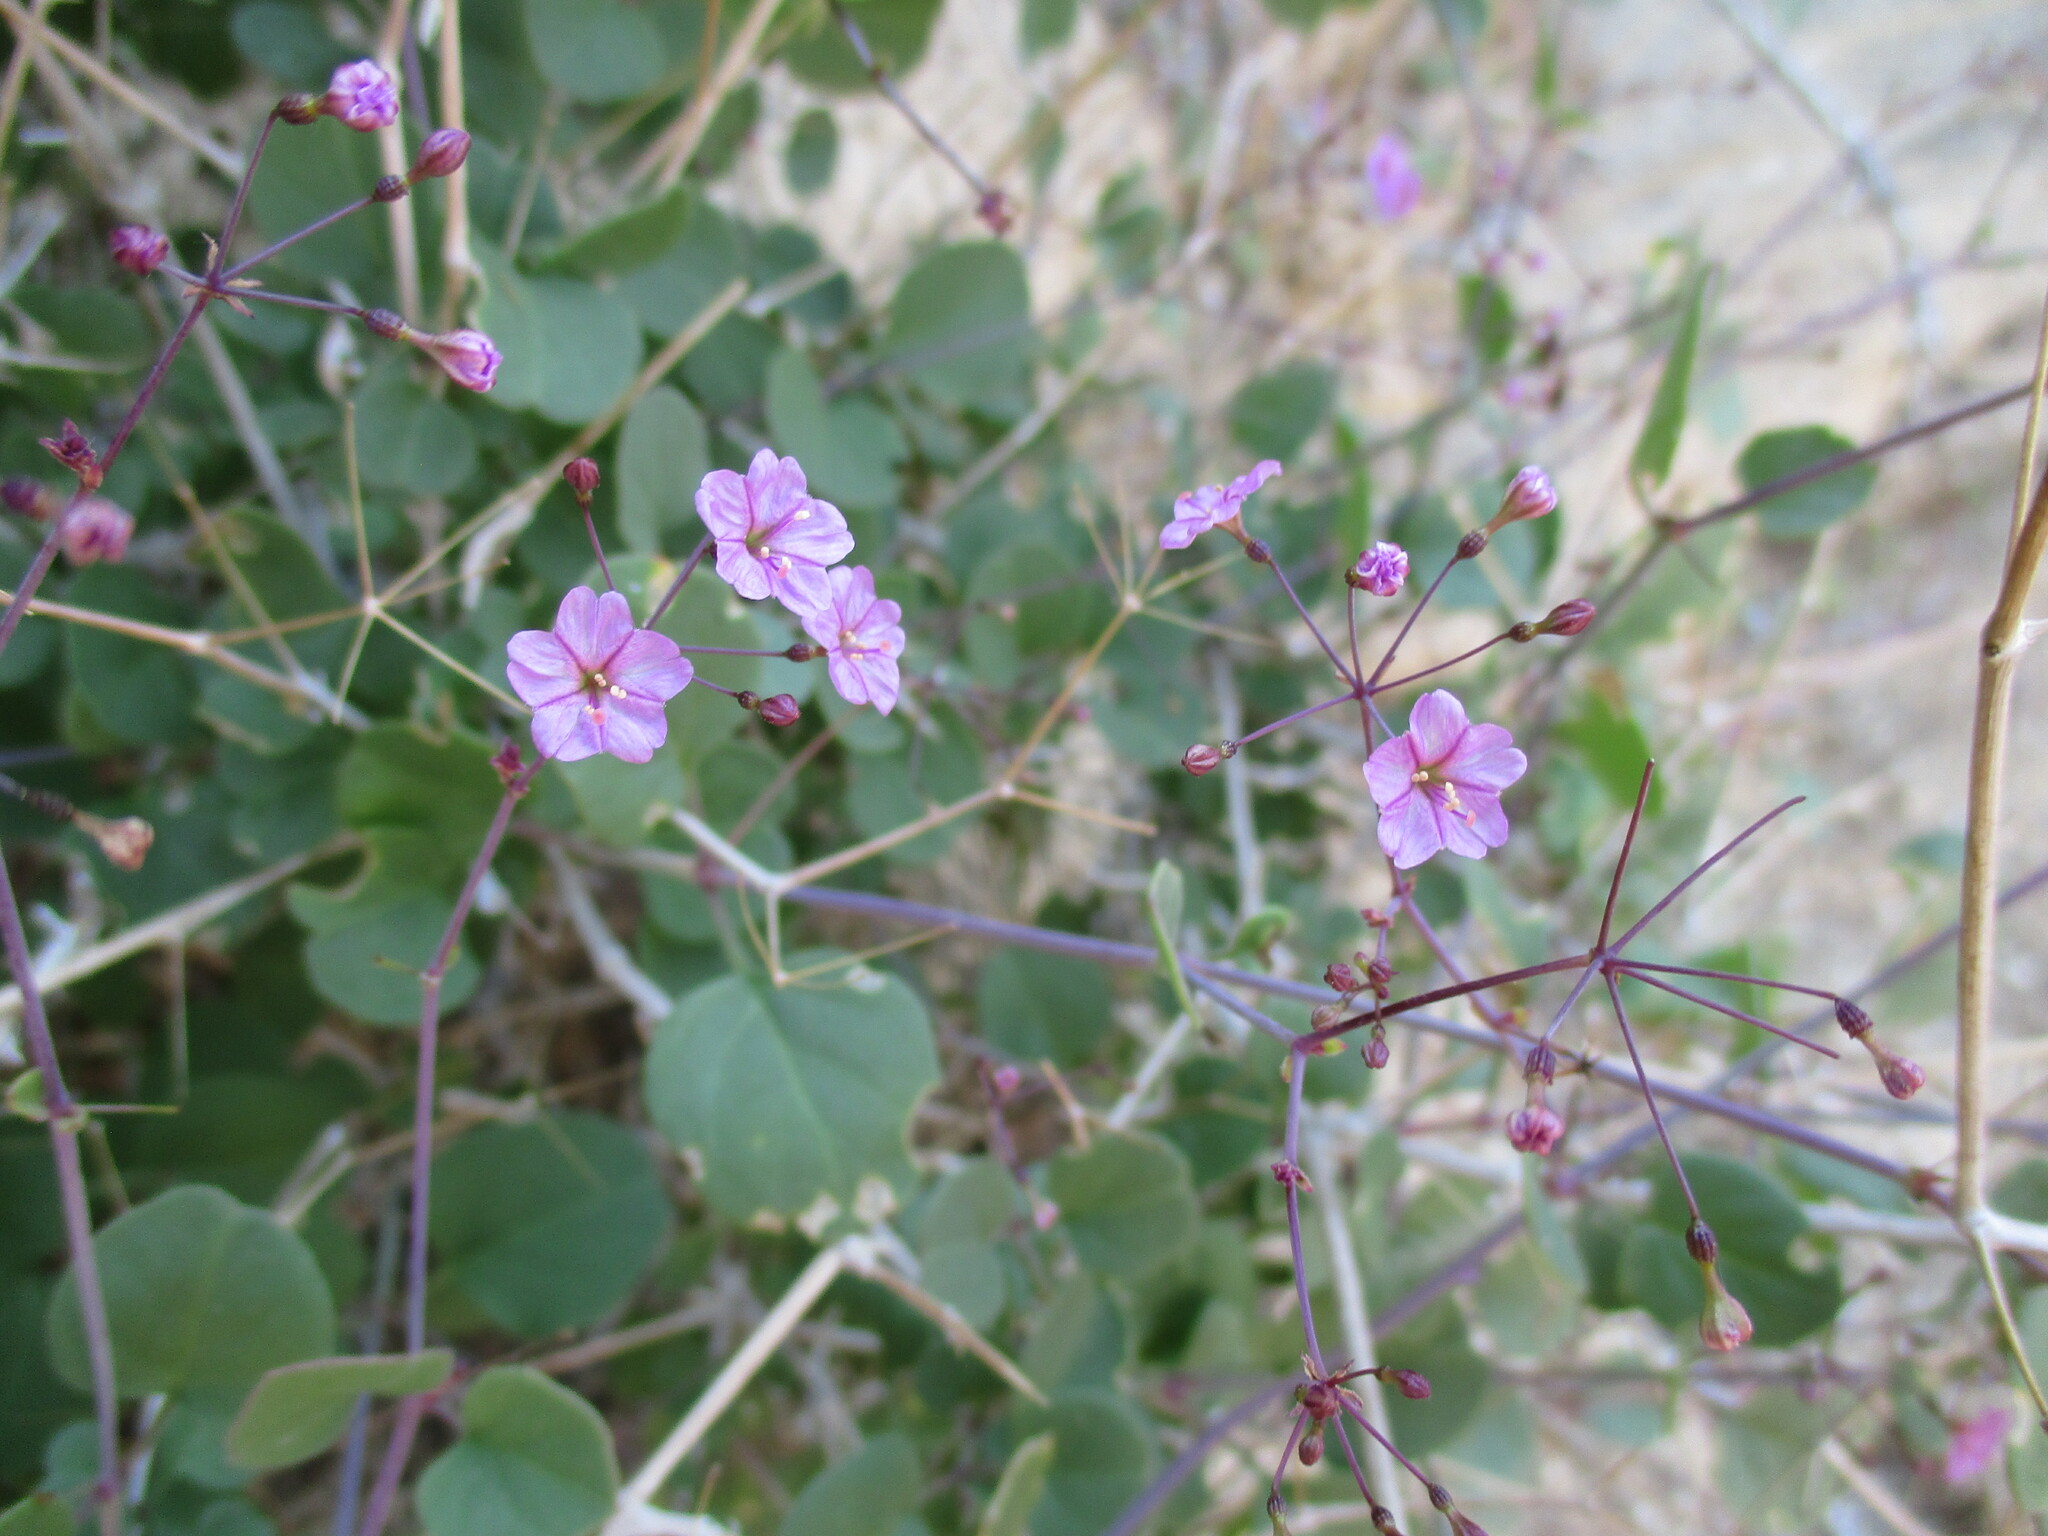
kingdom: Plantae
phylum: Tracheophyta
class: Magnoliopsida
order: Caryophyllales
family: Nyctaginaceae
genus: Commicarpus
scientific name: Commicarpus squarrosus
